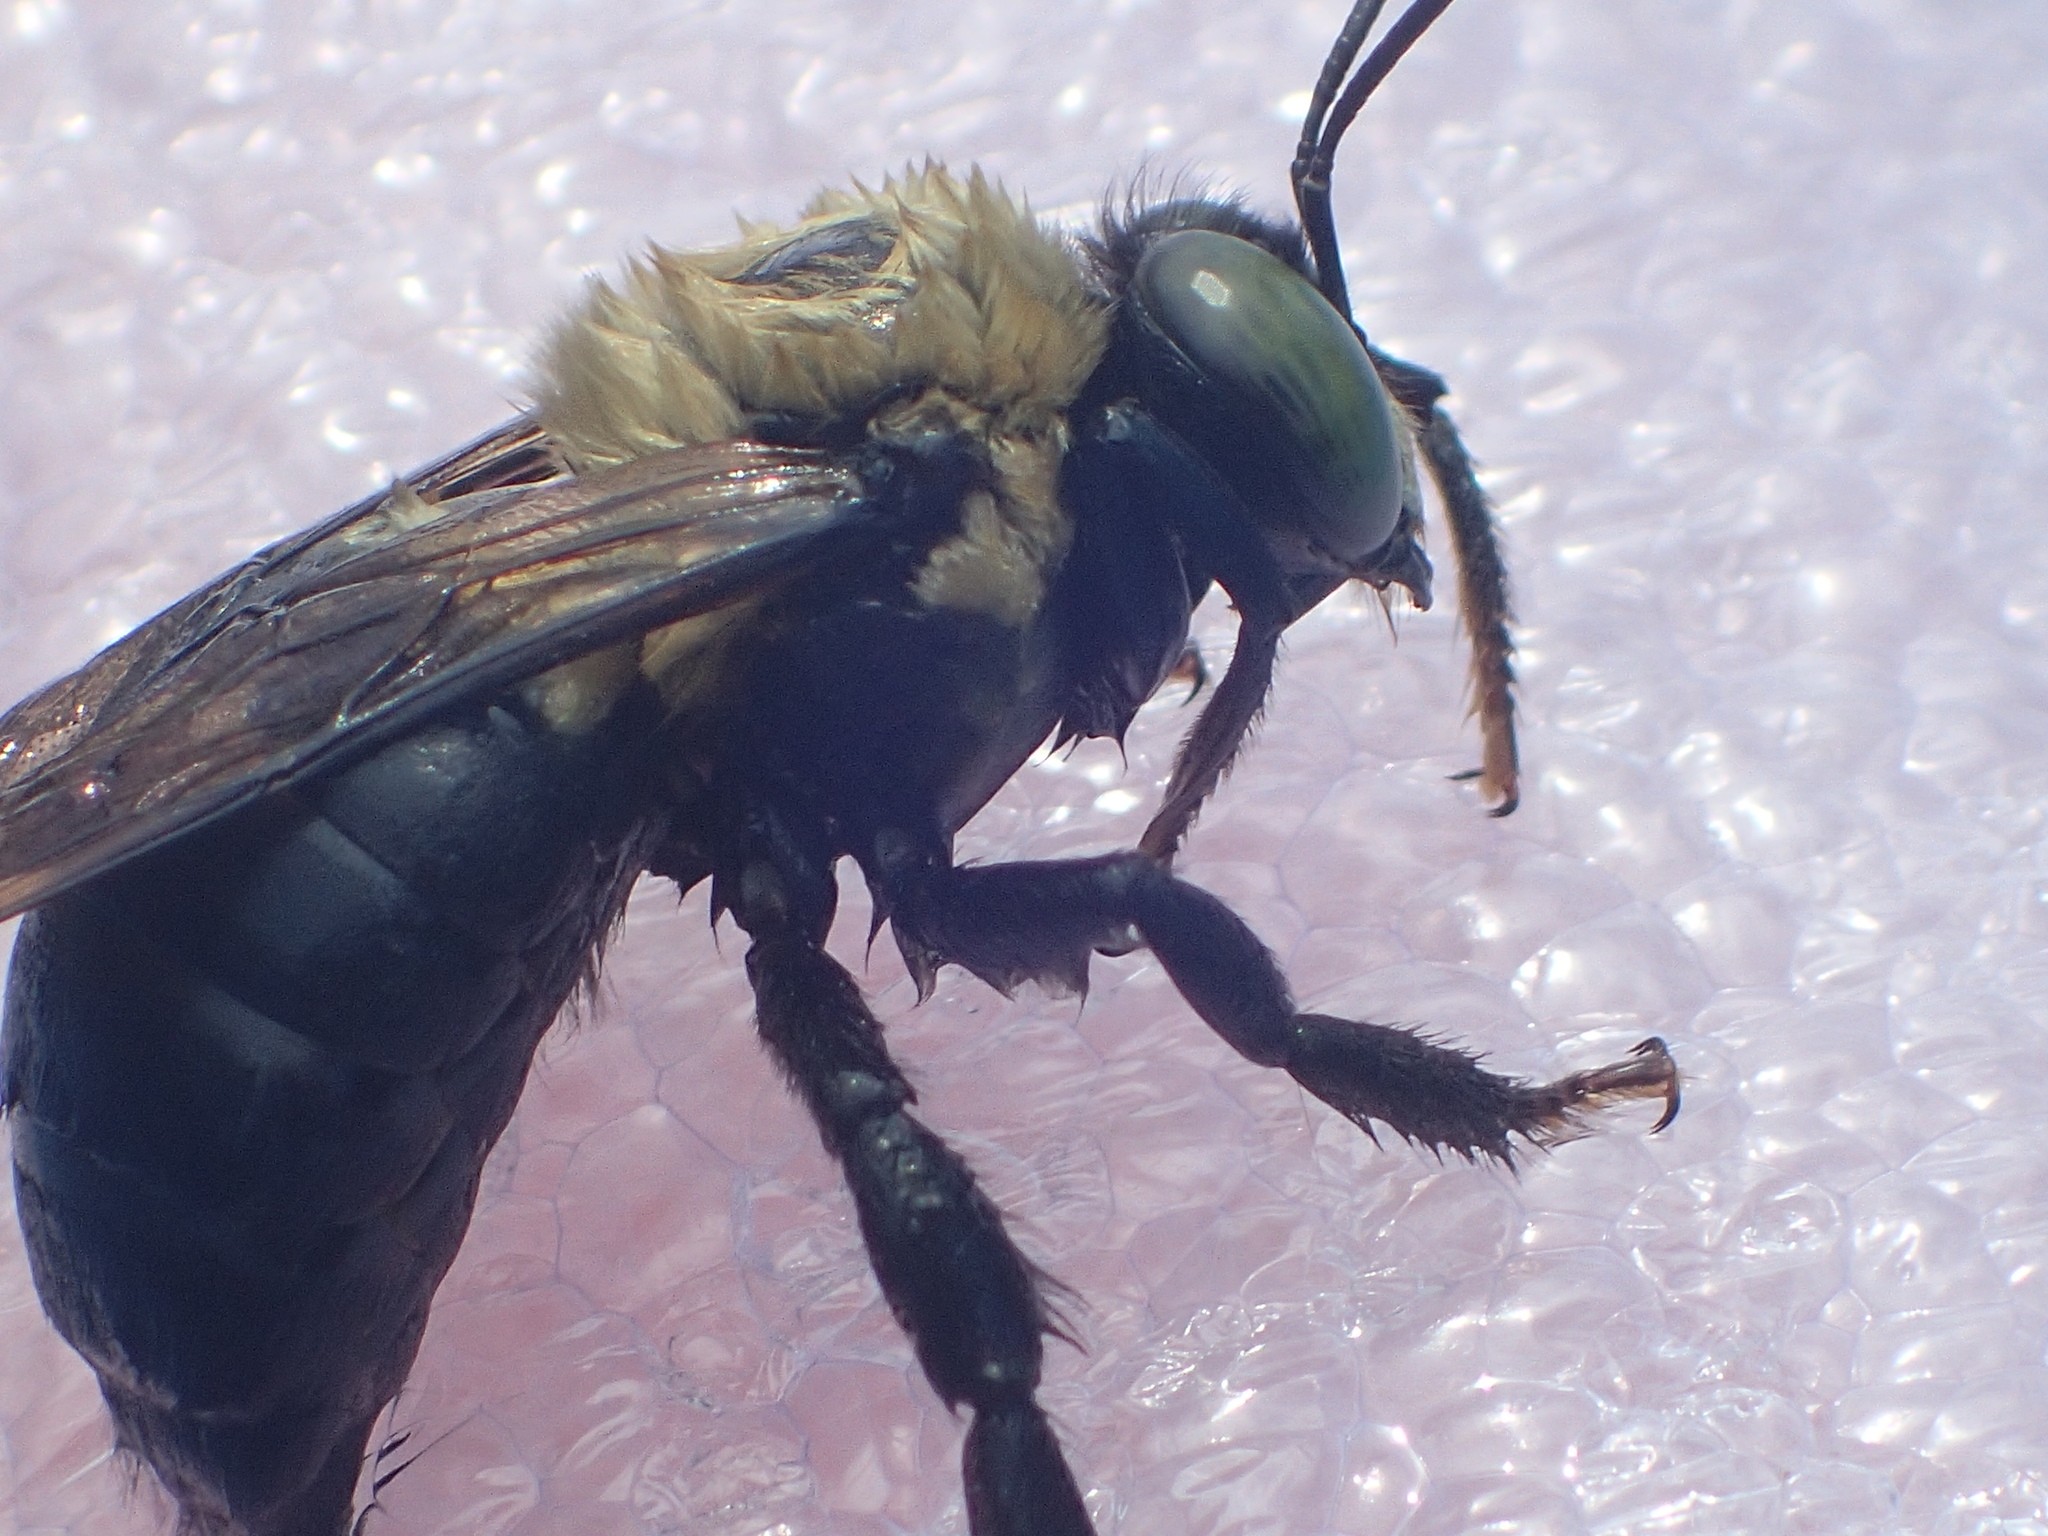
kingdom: Animalia
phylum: Arthropoda
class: Insecta
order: Hymenoptera
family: Apidae
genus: Xylocopa
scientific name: Xylocopa virginica
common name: Carpenter bee
